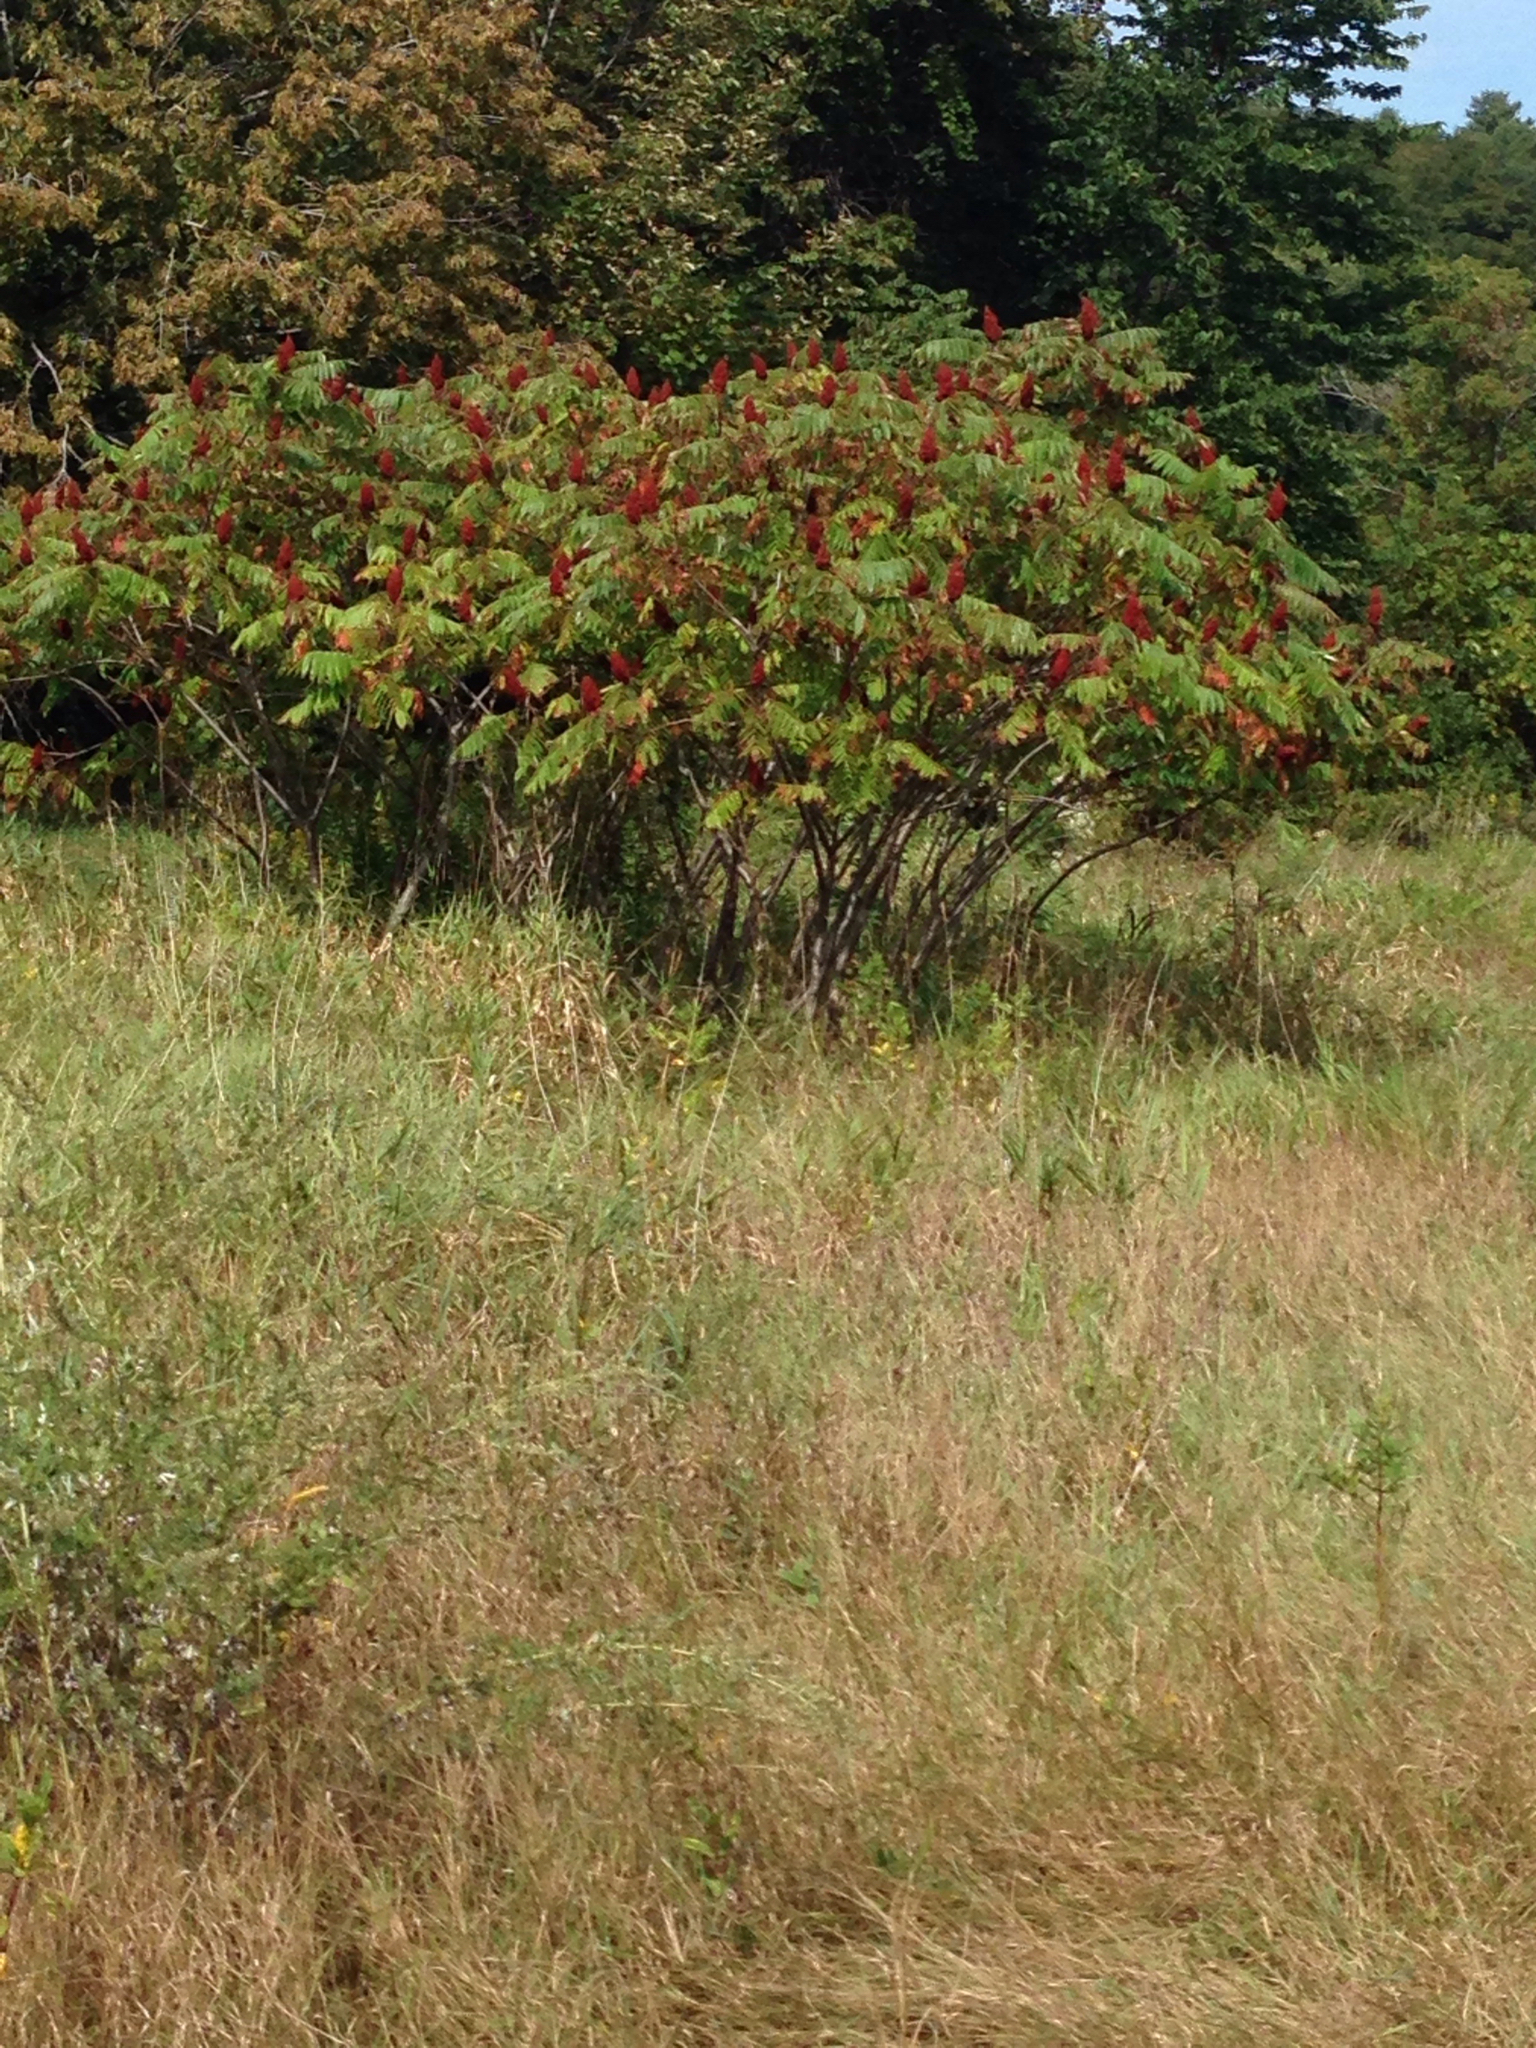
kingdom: Plantae
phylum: Tracheophyta
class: Magnoliopsida
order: Sapindales
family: Anacardiaceae
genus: Rhus
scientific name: Rhus typhina
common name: Staghorn sumac
